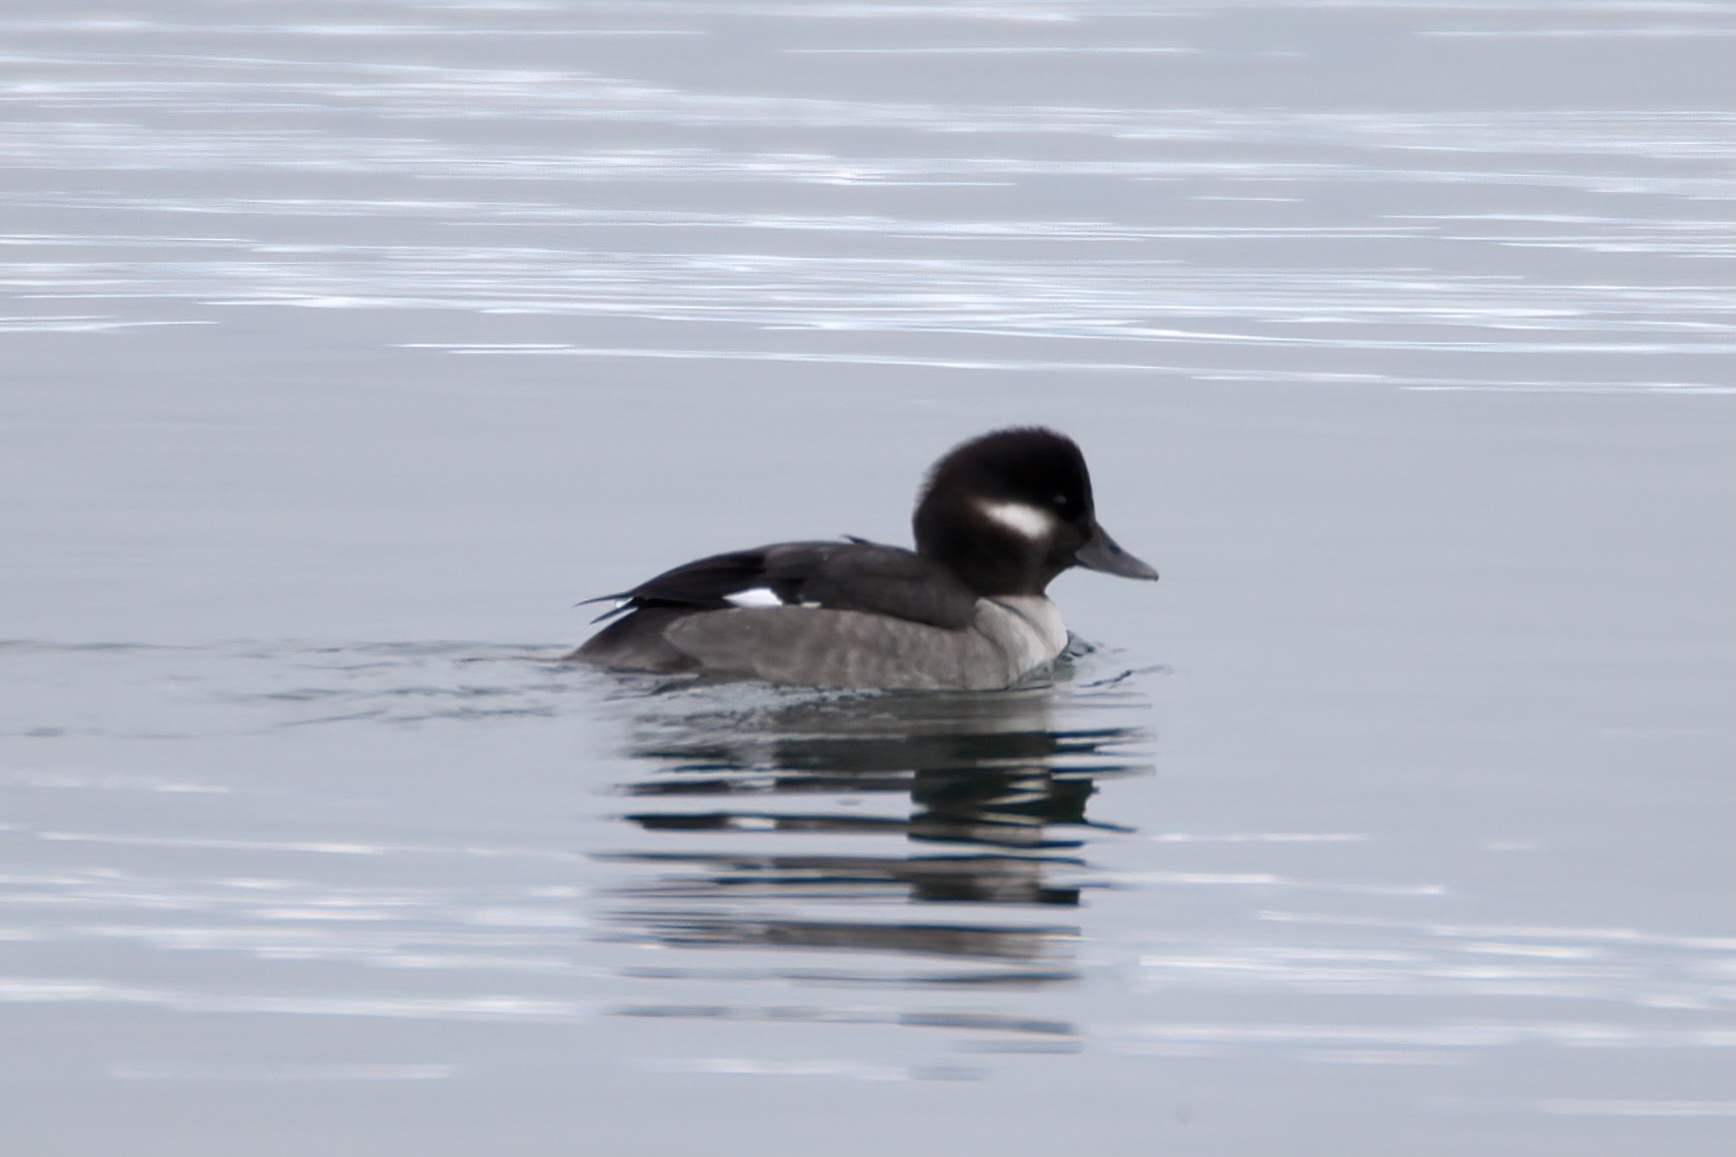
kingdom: Animalia
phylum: Chordata
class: Aves
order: Anseriformes
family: Anatidae
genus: Bucephala
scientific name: Bucephala albeola
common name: Bufflehead
